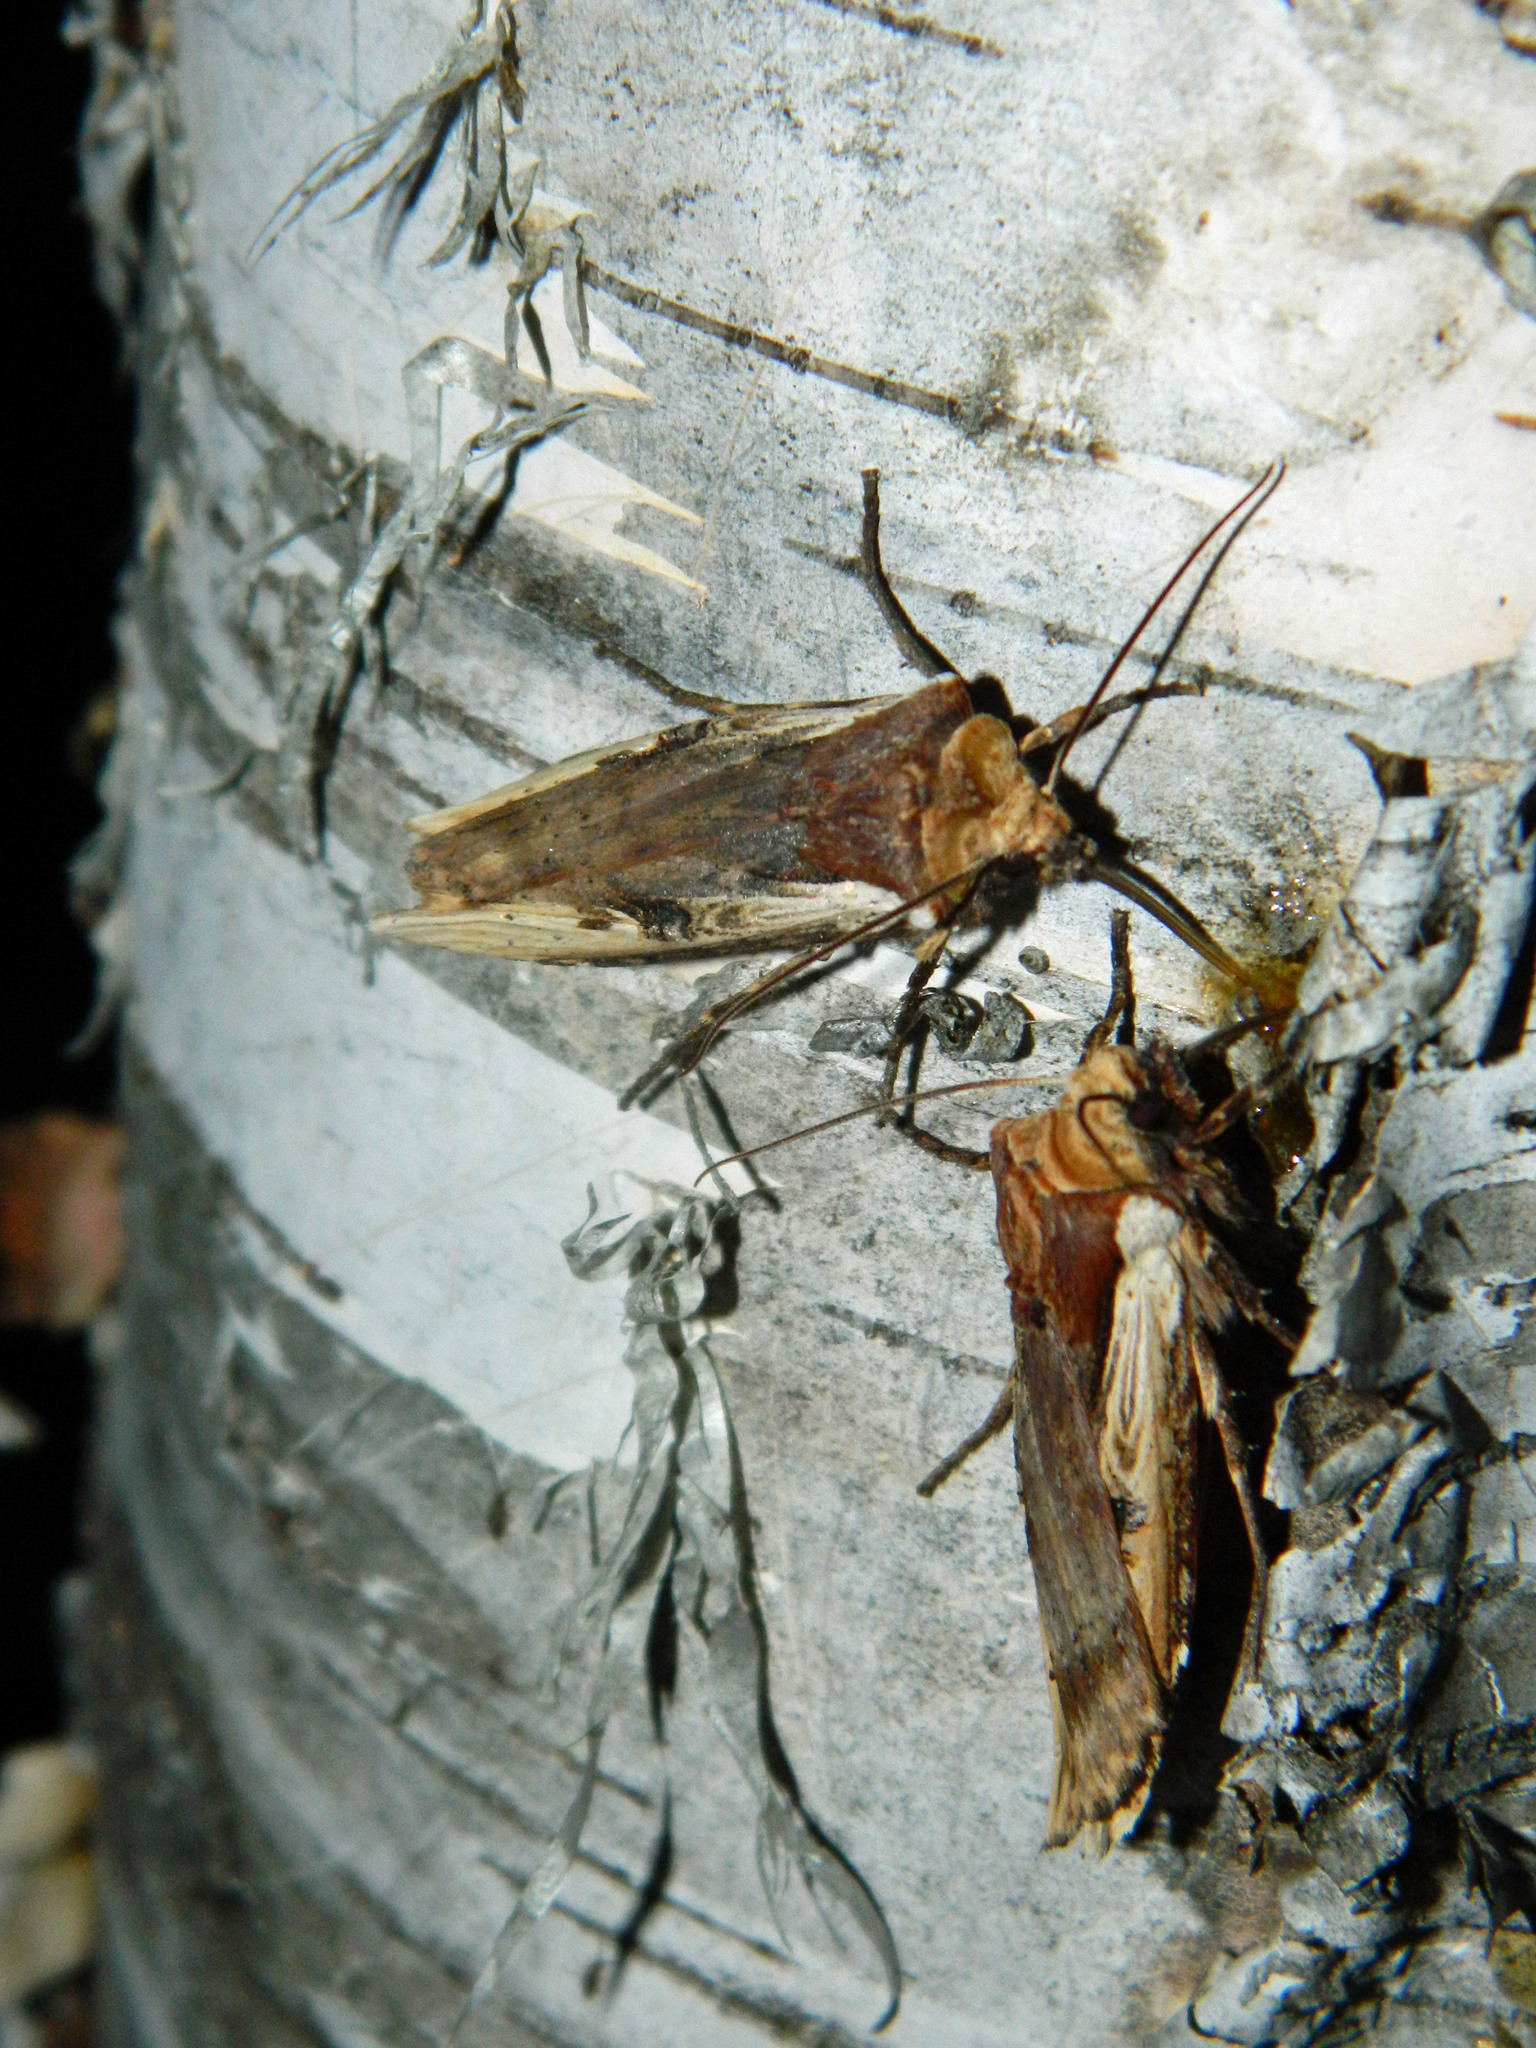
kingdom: Animalia
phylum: Arthropoda
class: Insecta
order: Lepidoptera
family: Noctuidae
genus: Xylena
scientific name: Xylena curvimacula
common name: Dot-and-dash swordgrass moth
